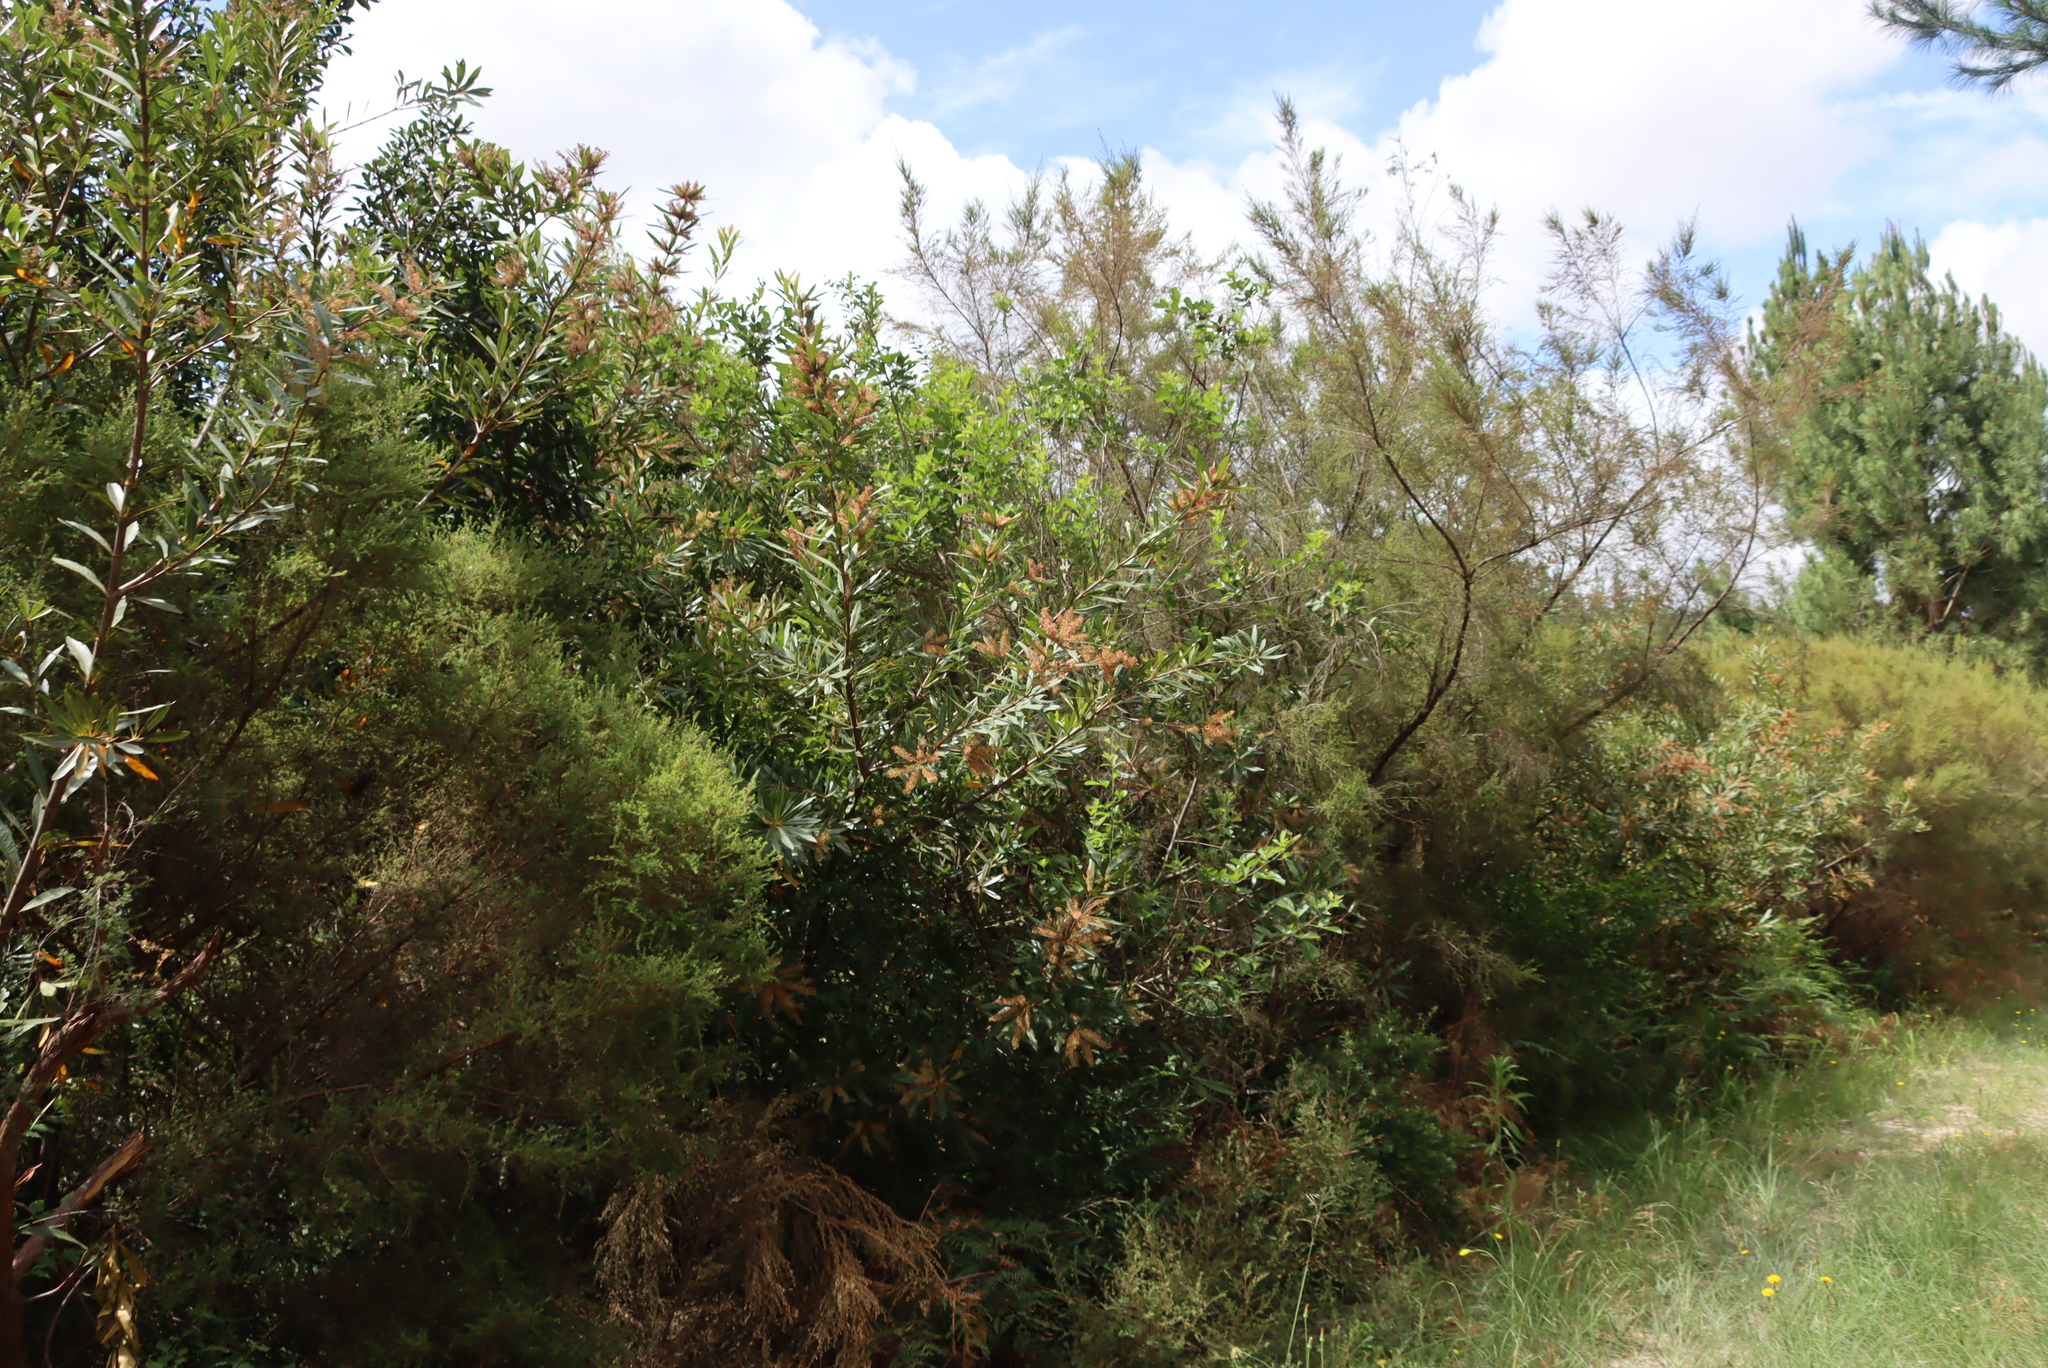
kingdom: Plantae
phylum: Tracheophyta
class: Magnoliopsida
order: Proteales
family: Proteaceae
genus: Brabejum
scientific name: Brabejum stellatifolium
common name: Wild almond
